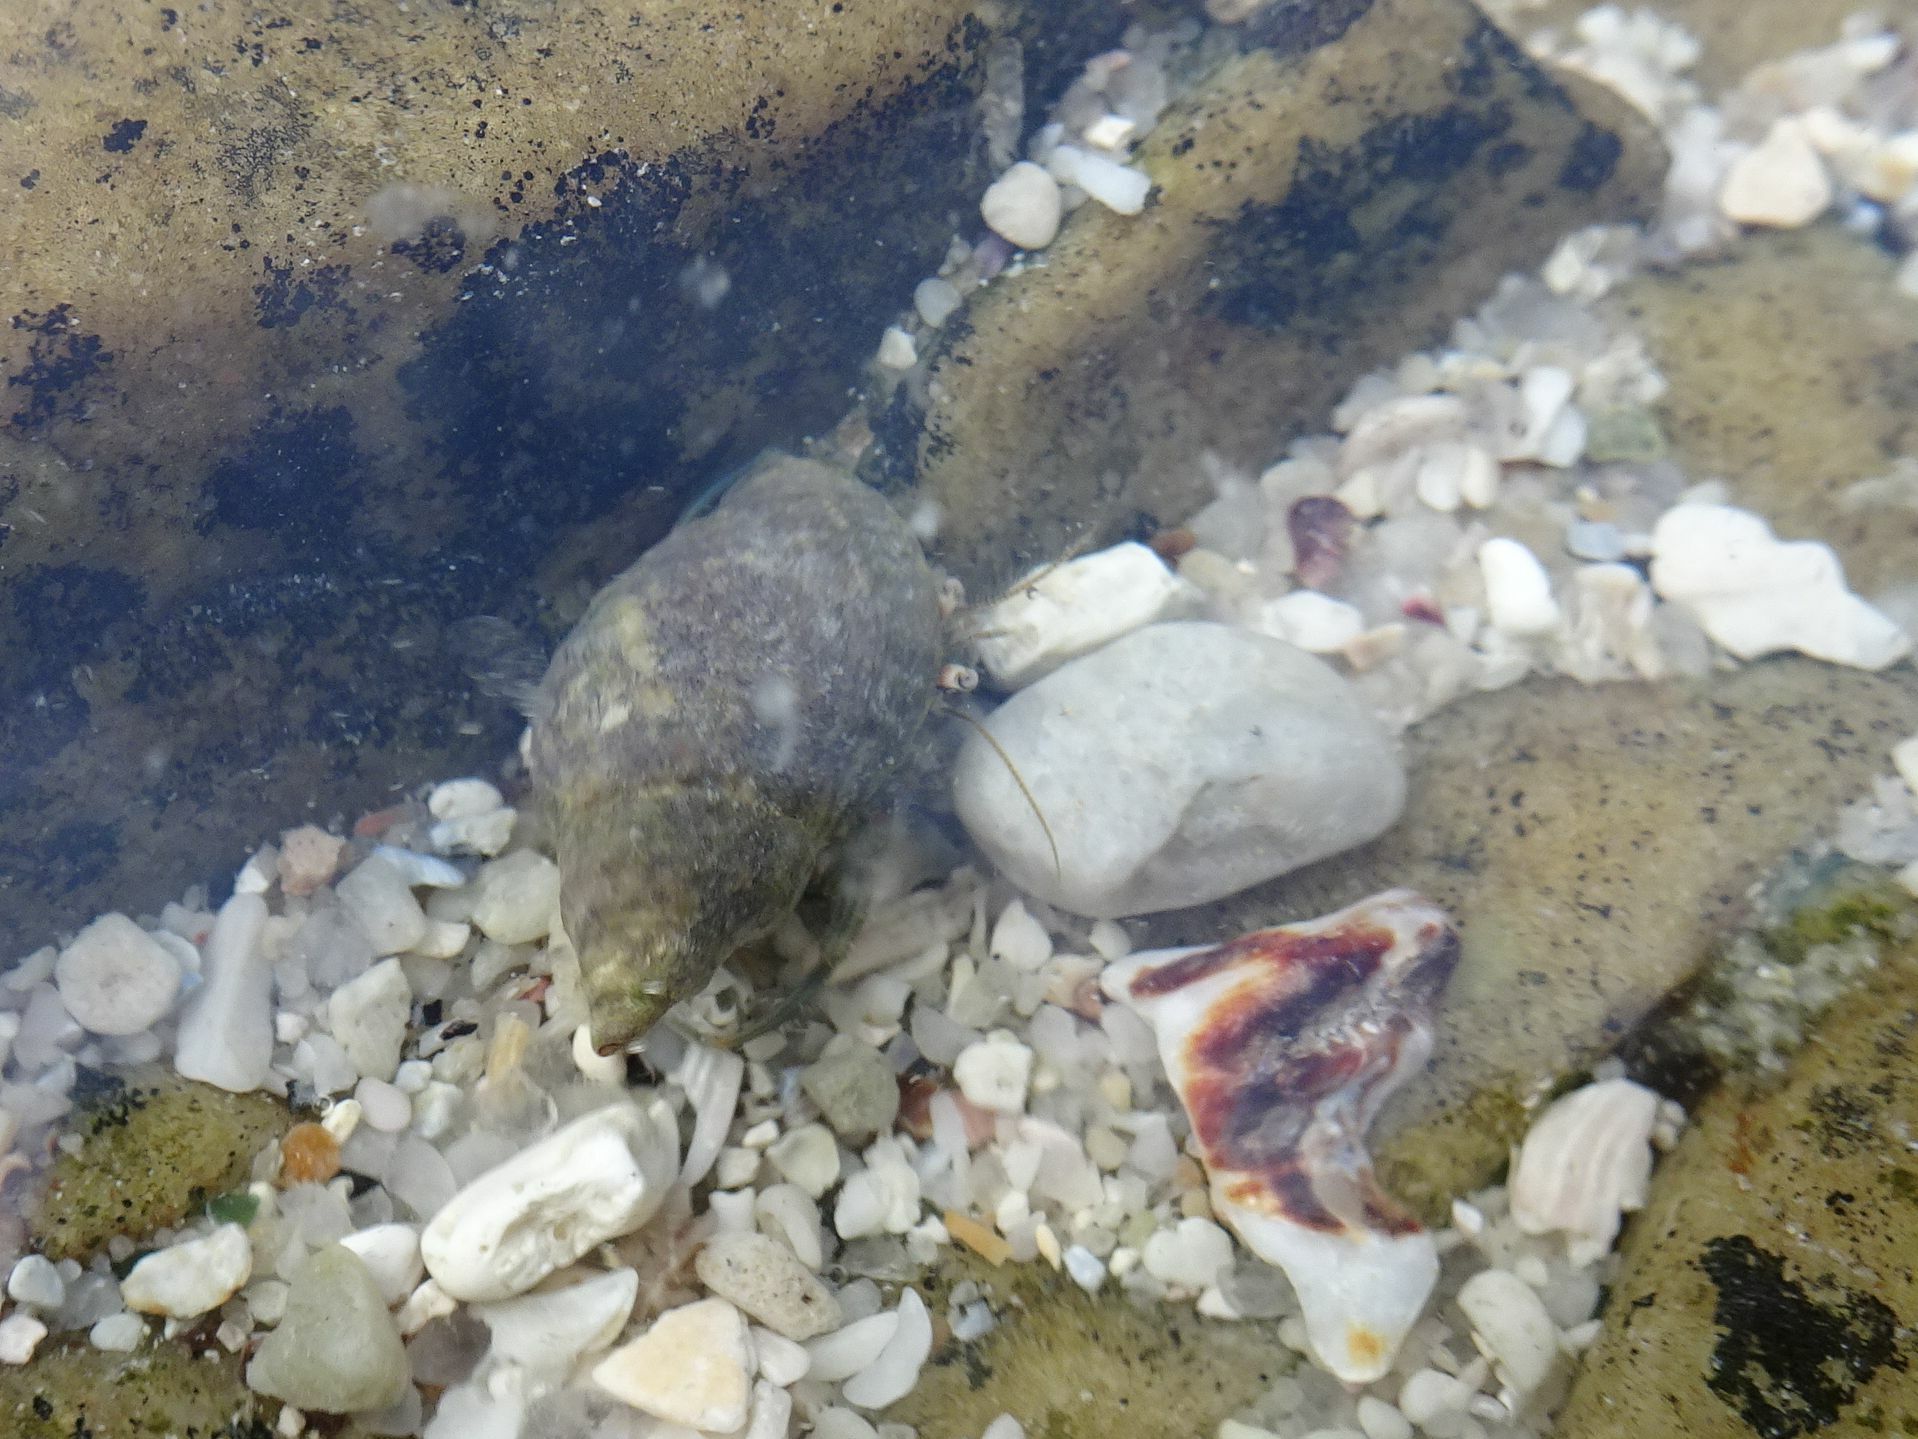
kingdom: Animalia
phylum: Arthropoda
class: Malacostraca
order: Decapoda
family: Diogenidae
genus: Diogenes
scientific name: Diogenes brevirostris
